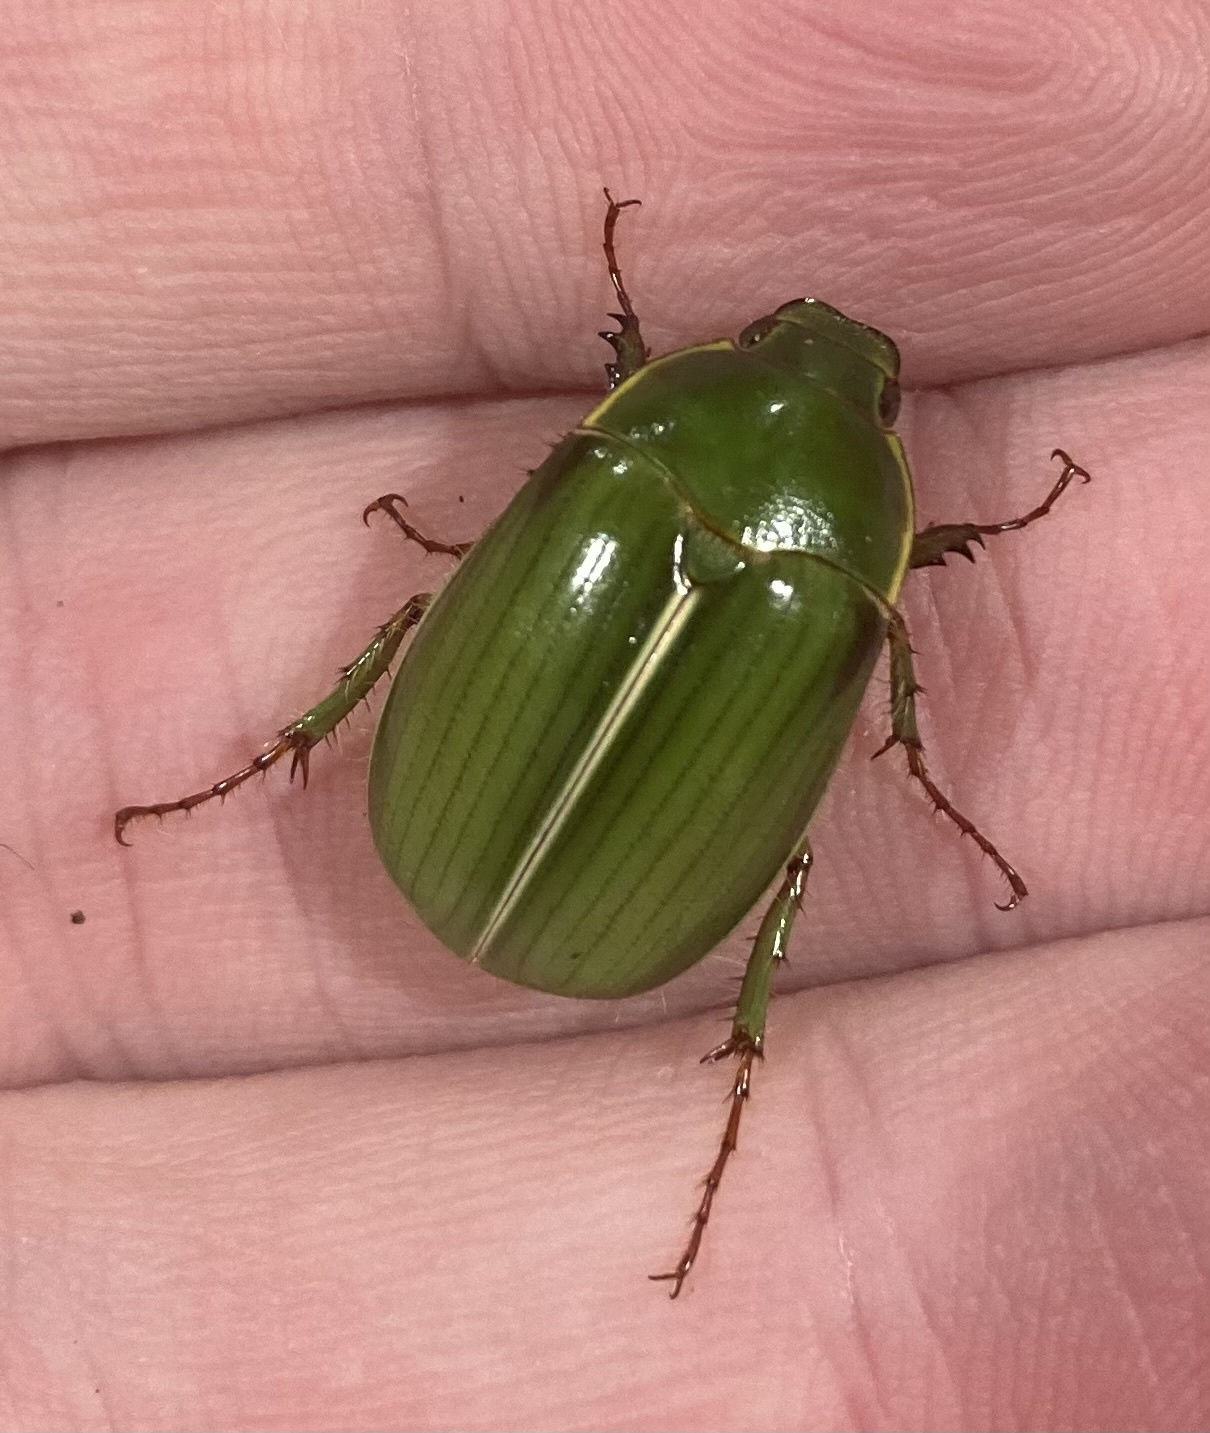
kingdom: Animalia
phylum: Arthropoda
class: Insecta
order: Coleoptera
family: Scarabaeidae
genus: Stethaspis
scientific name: Stethaspis suturalis
